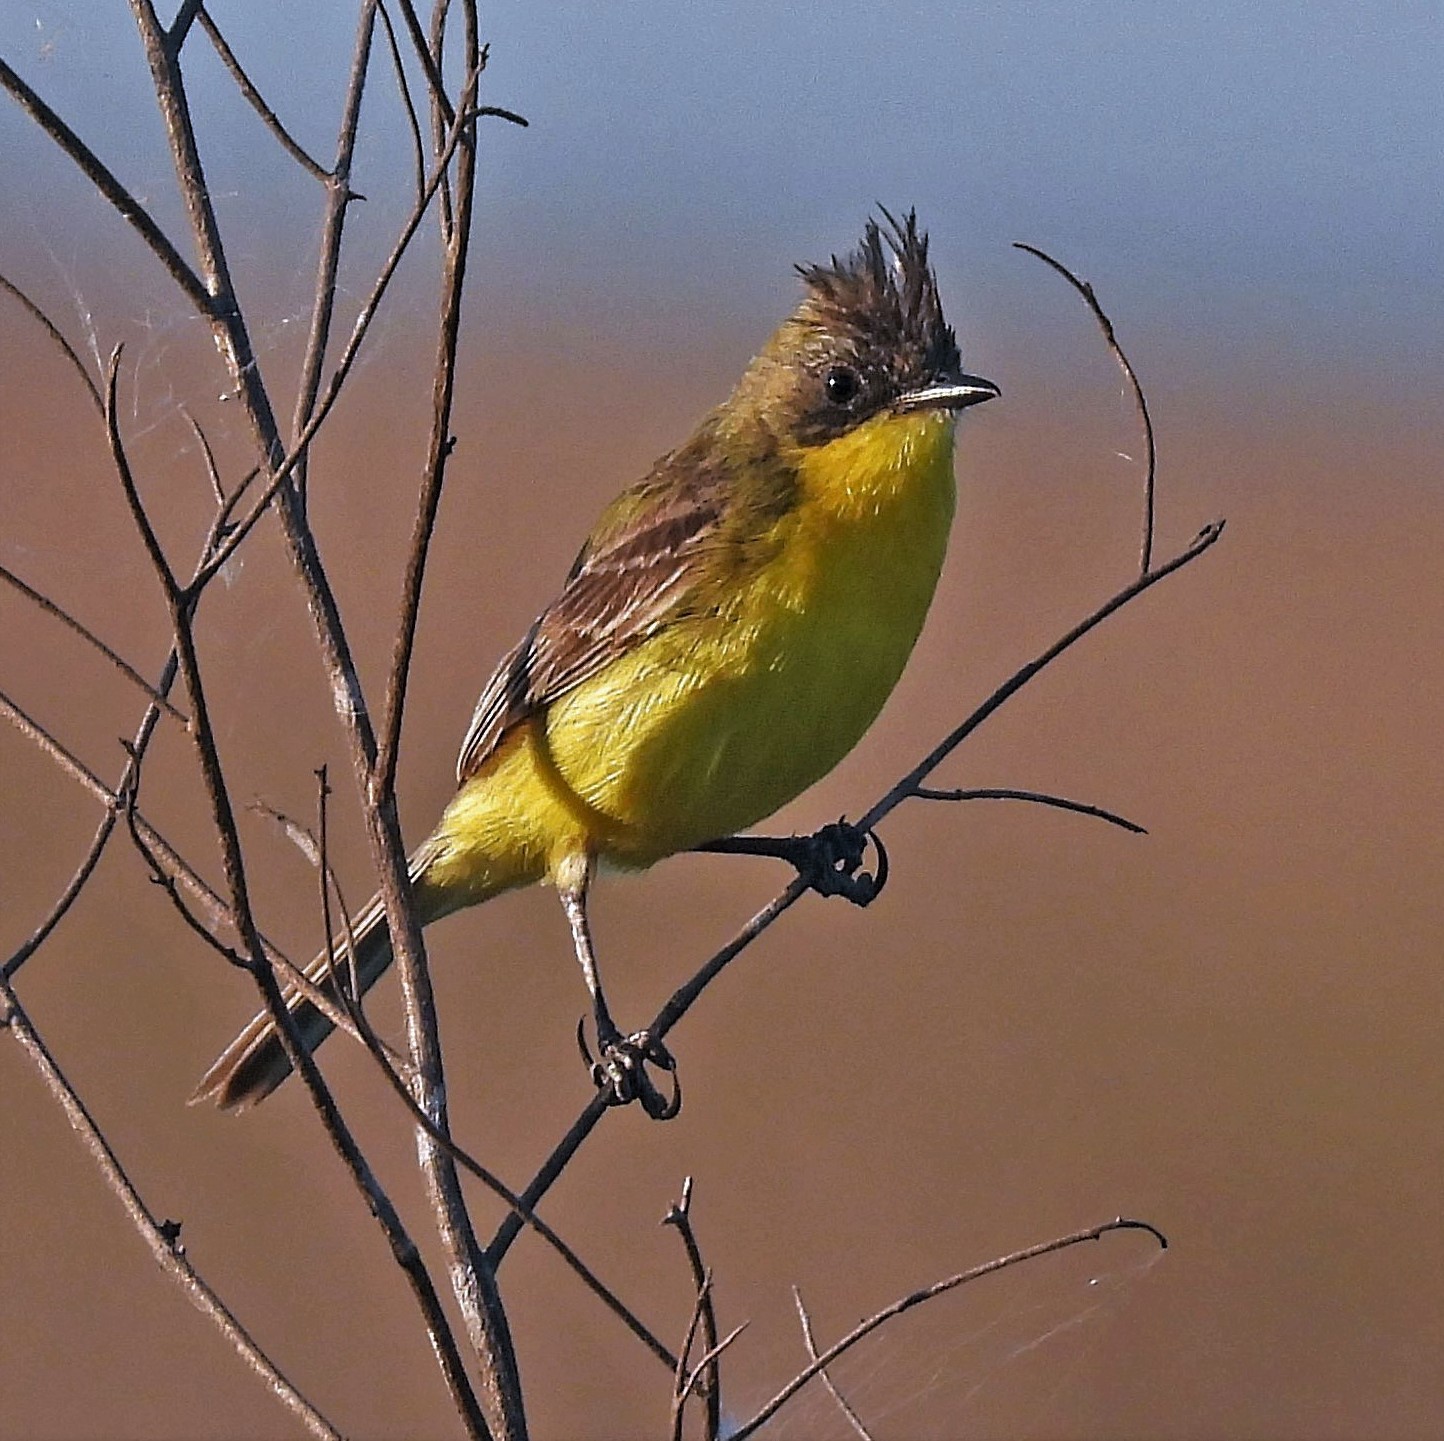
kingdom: Animalia
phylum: Chordata
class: Aves
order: Passeriformes
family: Tyrannidae
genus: Pseudocolopteryx
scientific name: Pseudocolopteryx sclateri
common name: Crested doradito
